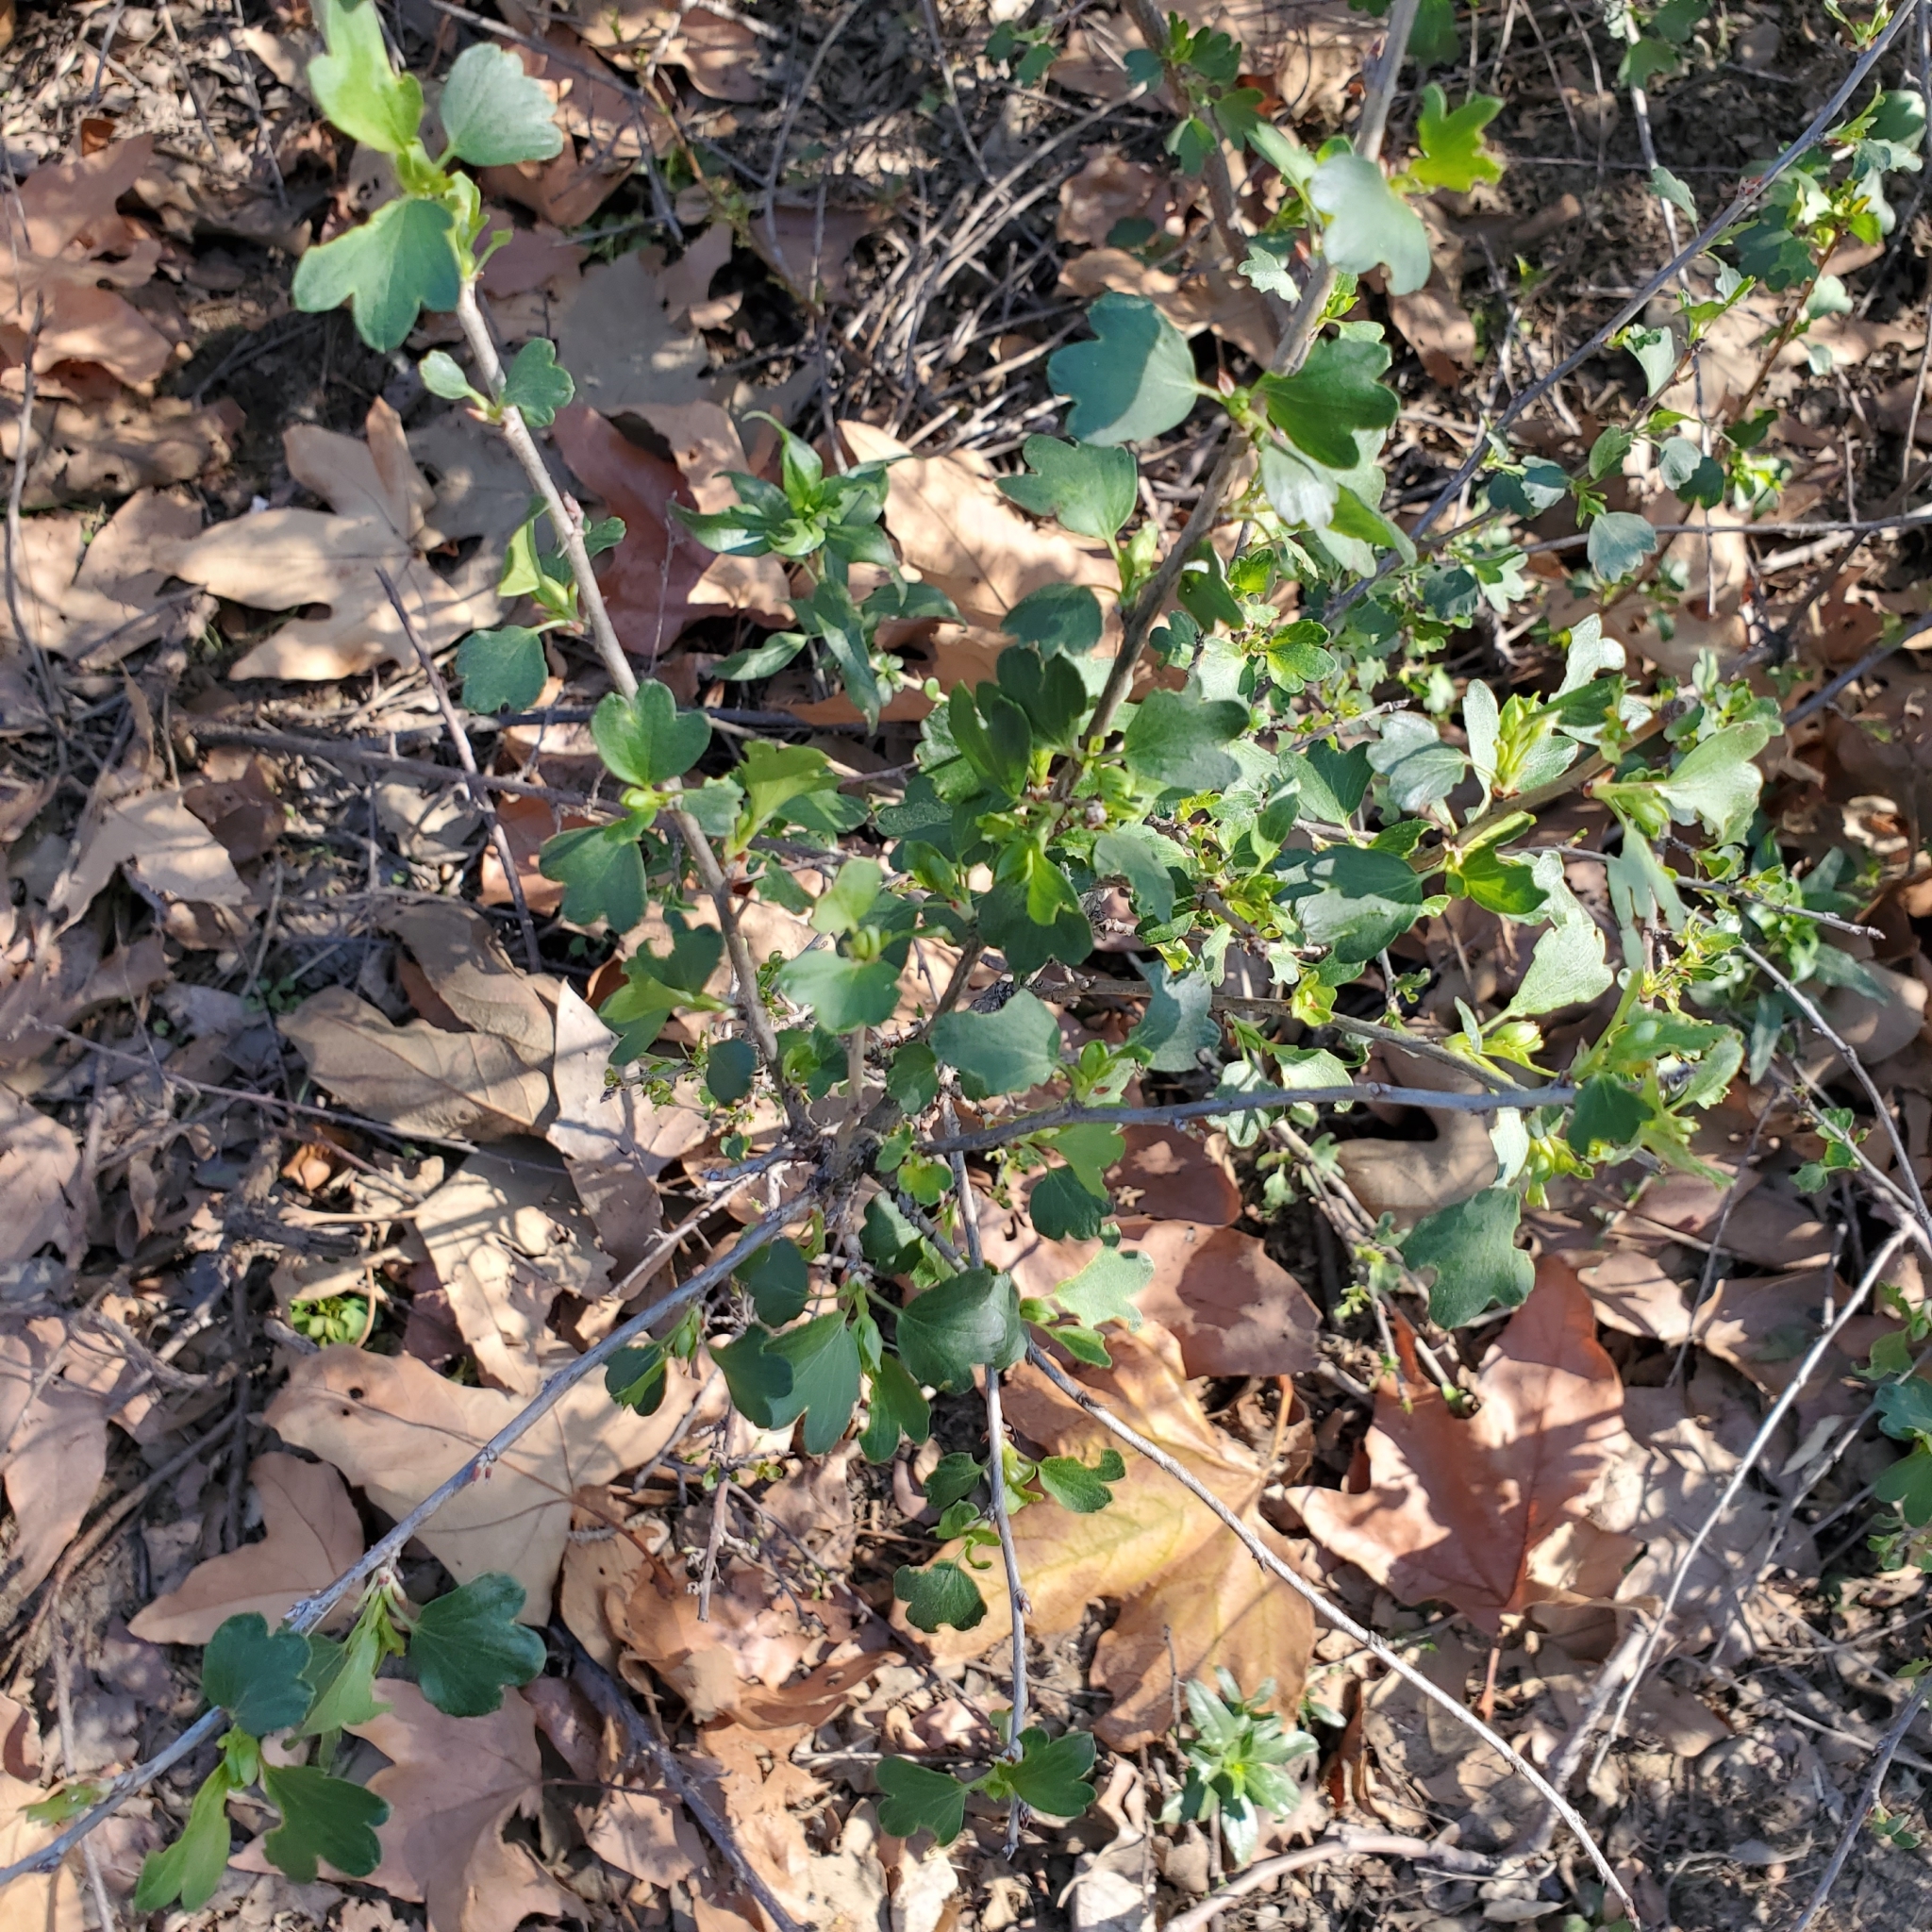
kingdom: Plantae
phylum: Tracheophyta
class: Magnoliopsida
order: Saxifragales
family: Grossulariaceae
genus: Ribes
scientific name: Ribes aureum
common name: Golden currant
